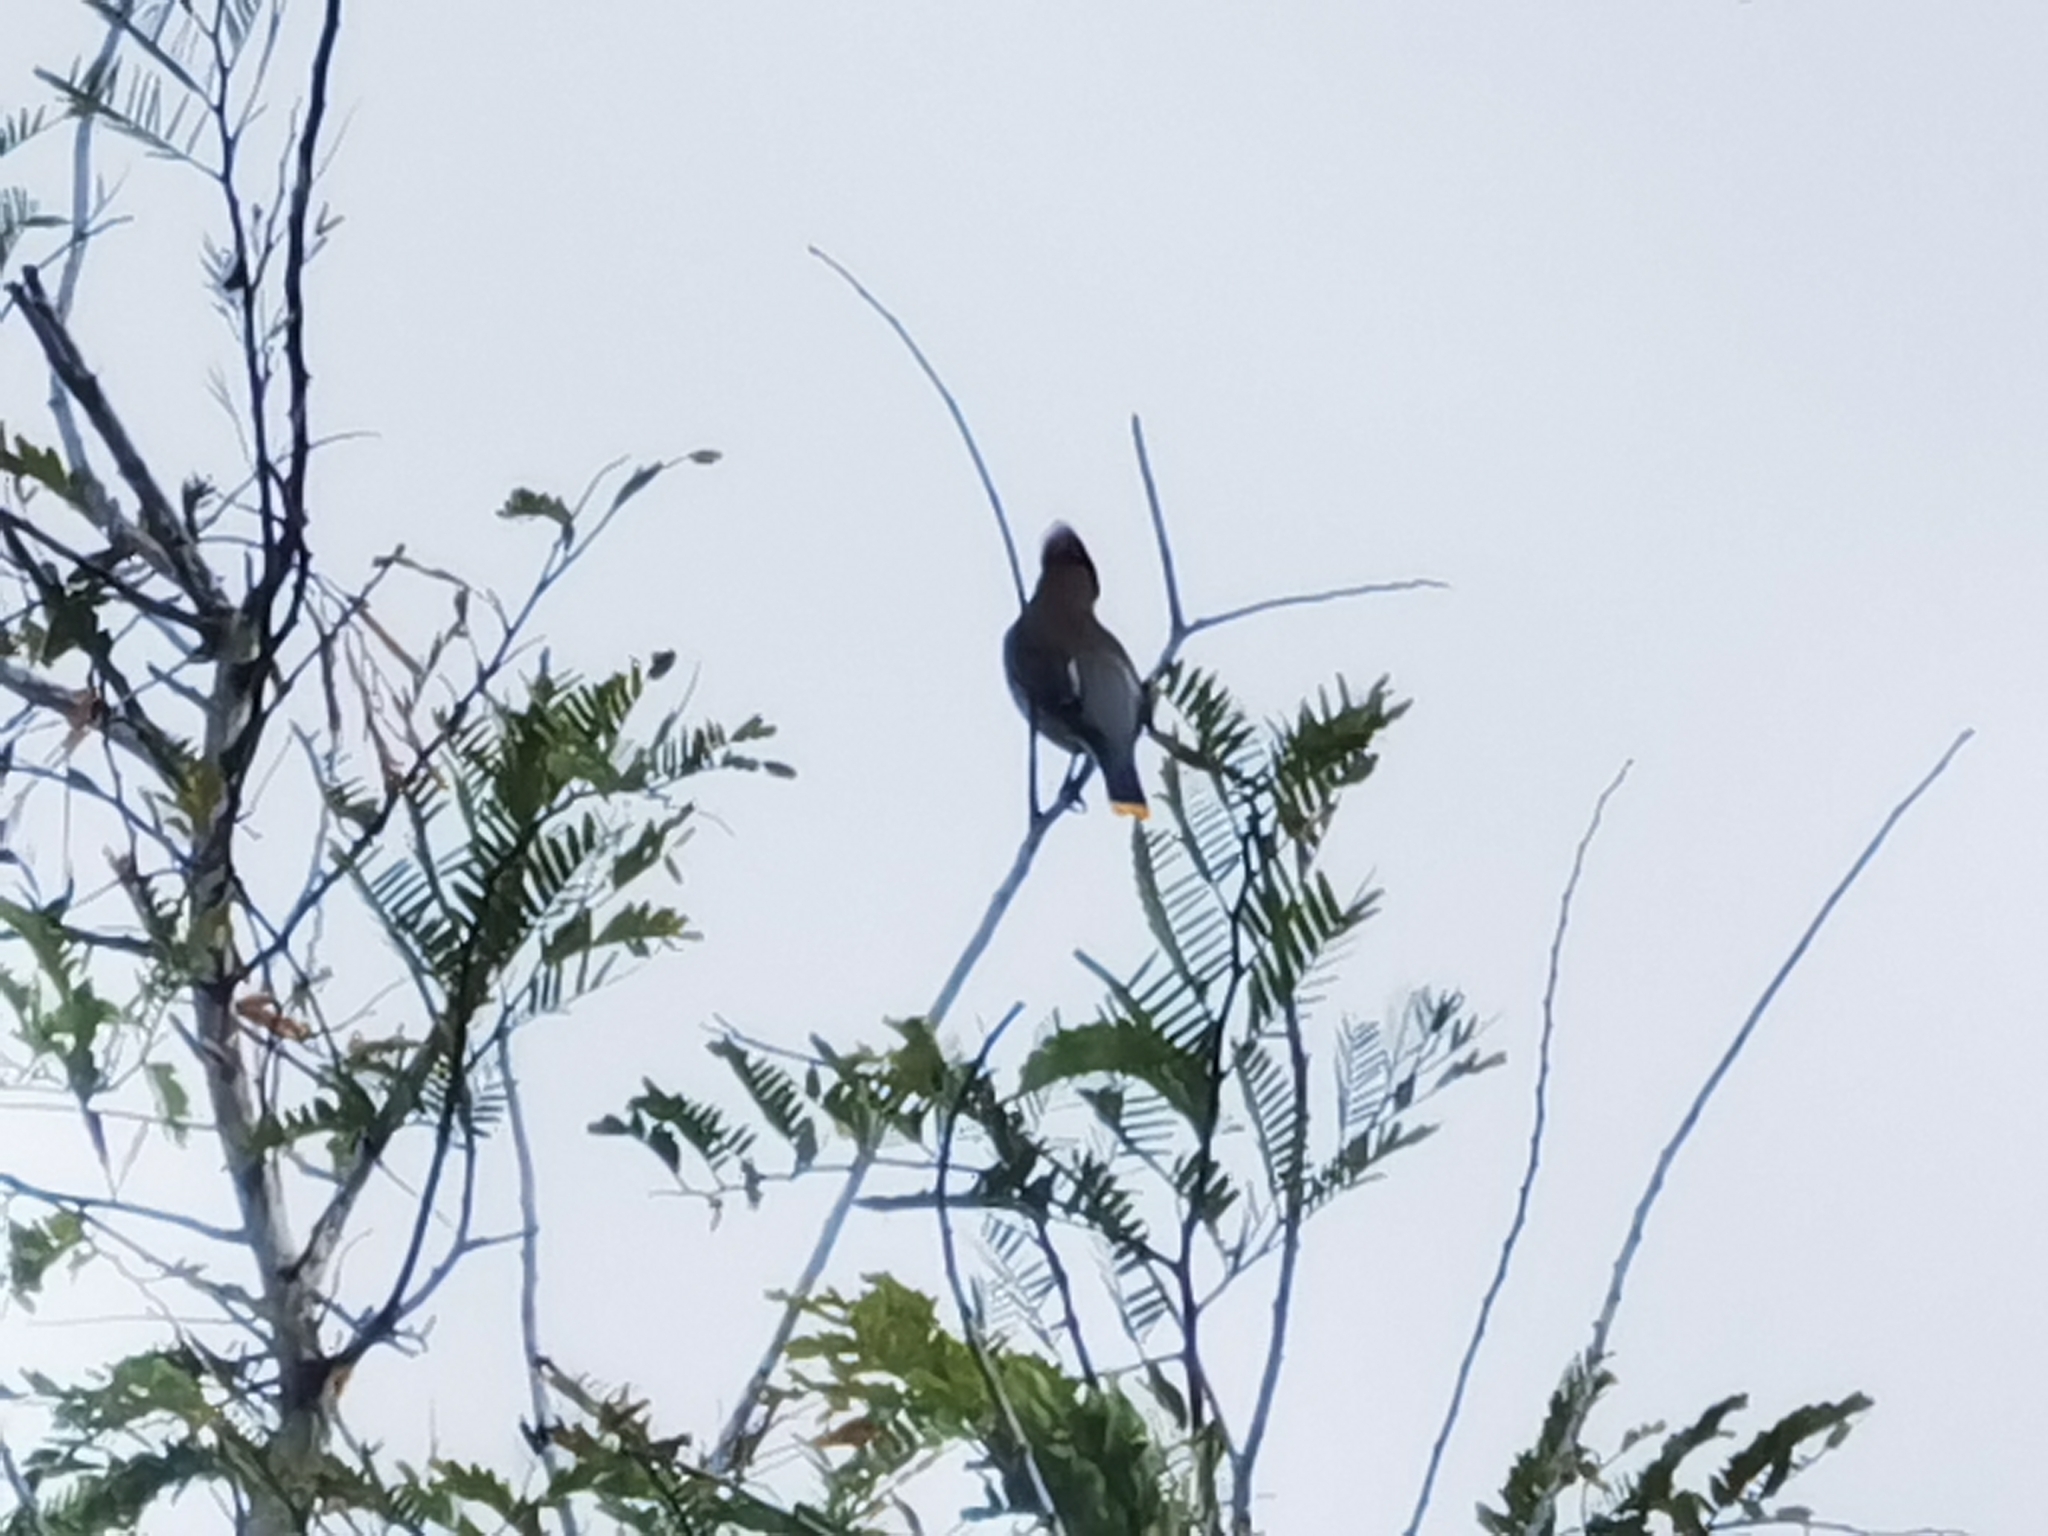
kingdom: Animalia
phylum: Chordata
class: Aves
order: Passeriformes
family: Bombycillidae
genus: Bombycilla
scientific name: Bombycilla cedrorum
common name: Cedar waxwing
